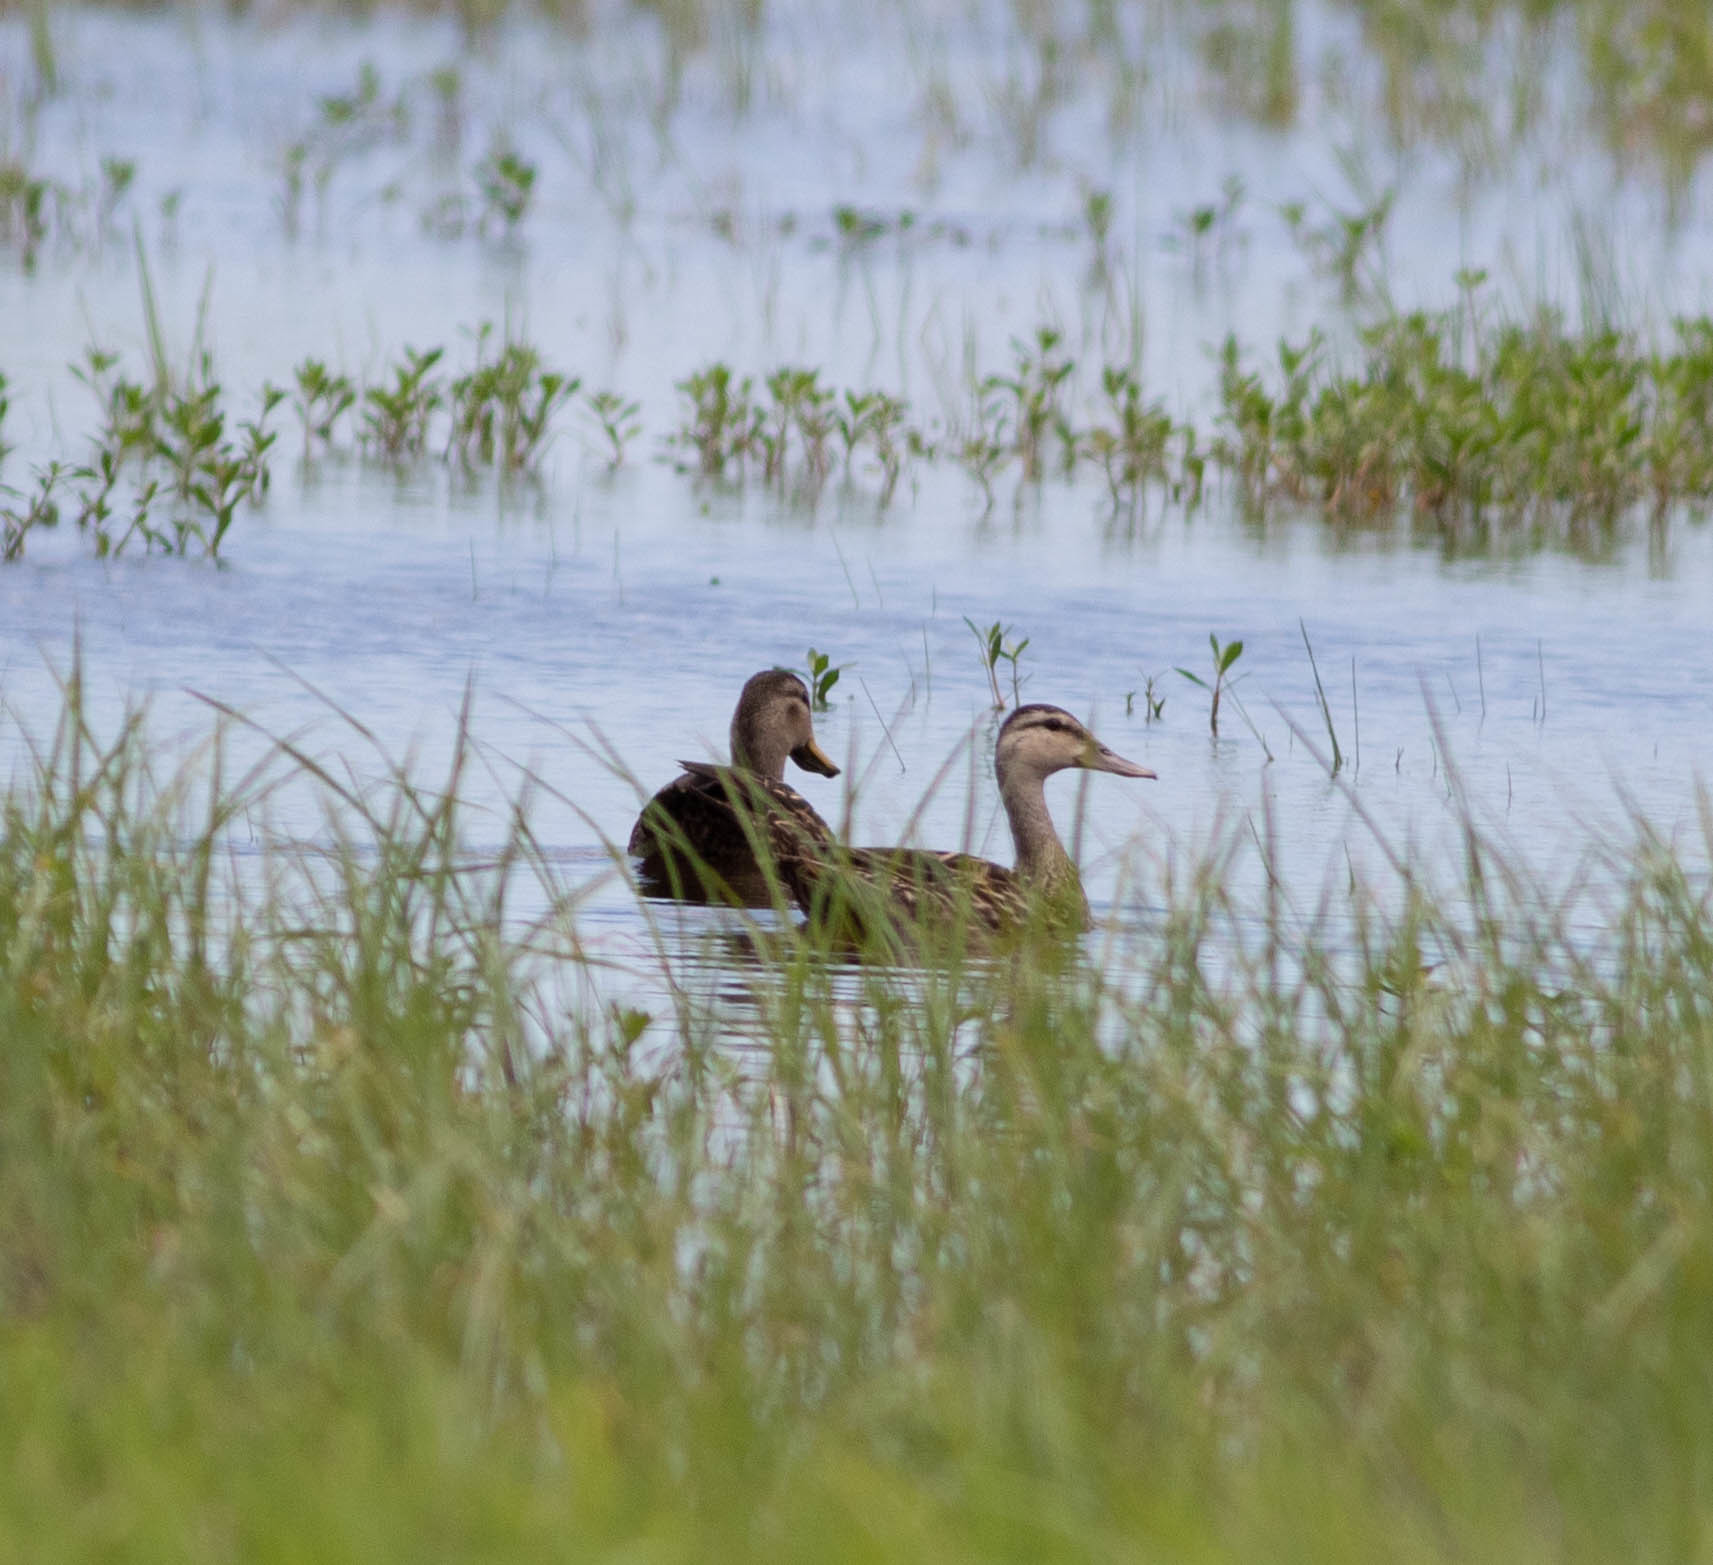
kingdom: Animalia
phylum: Chordata
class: Aves
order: Anseriformes
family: Anatidae
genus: Anas
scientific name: Anas fulvigula
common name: Mottled duck
